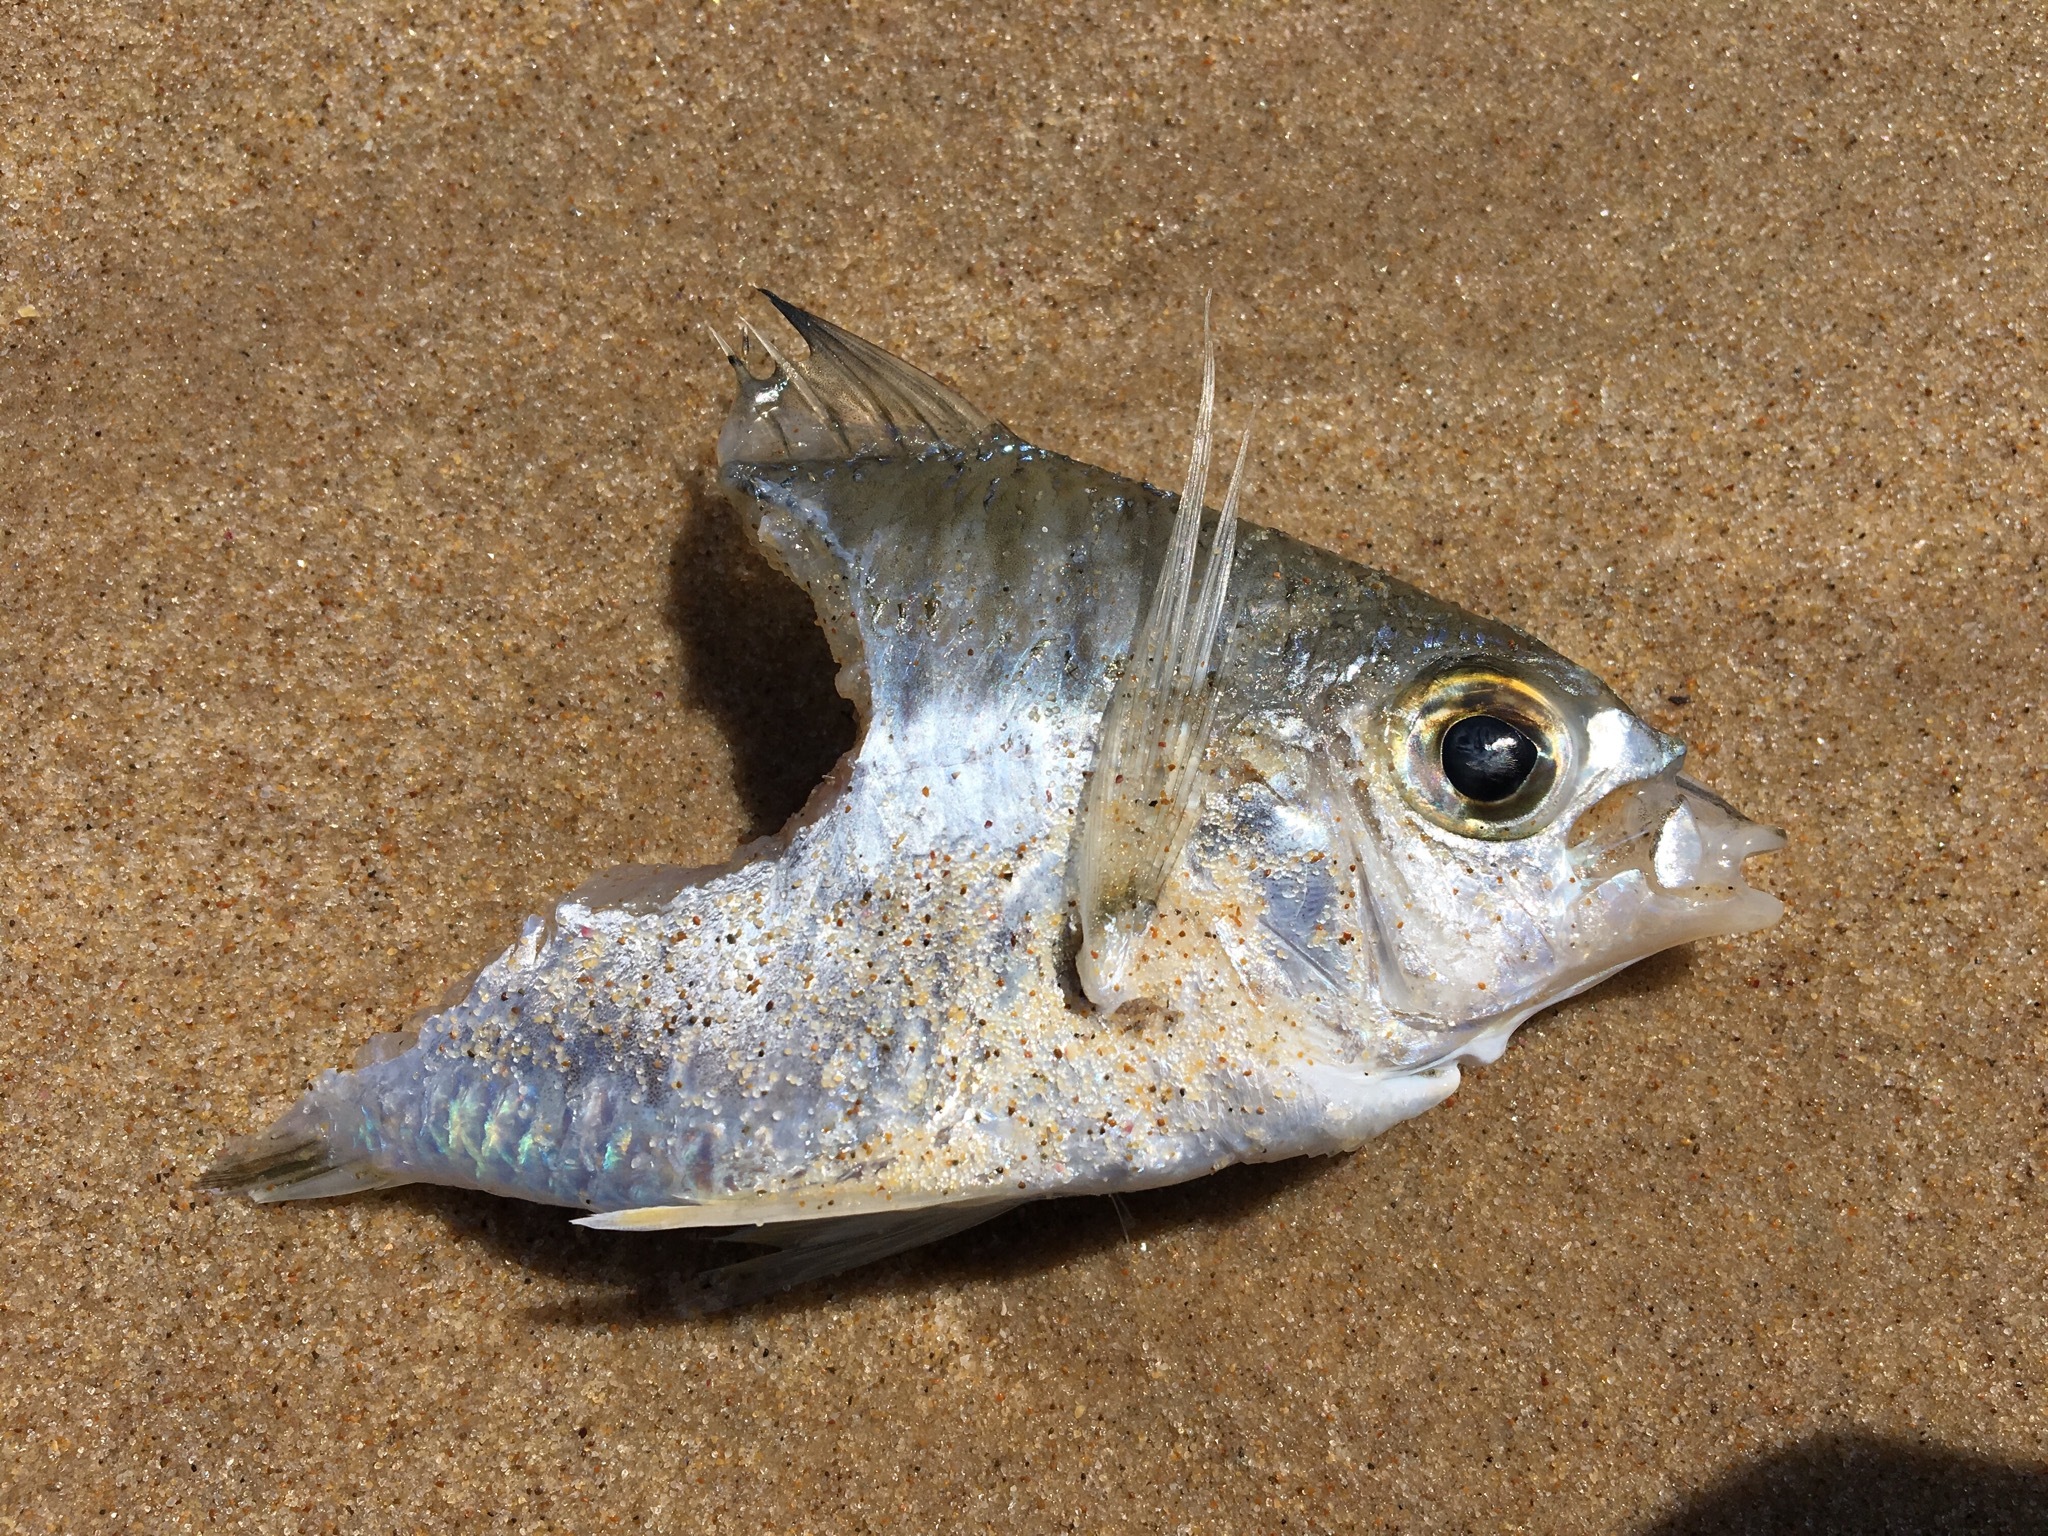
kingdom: Animalia
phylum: Chordata
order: Perciformes
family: Gerreidae
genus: Gerres
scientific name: Gerres subfasciatus
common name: Common silver belly
